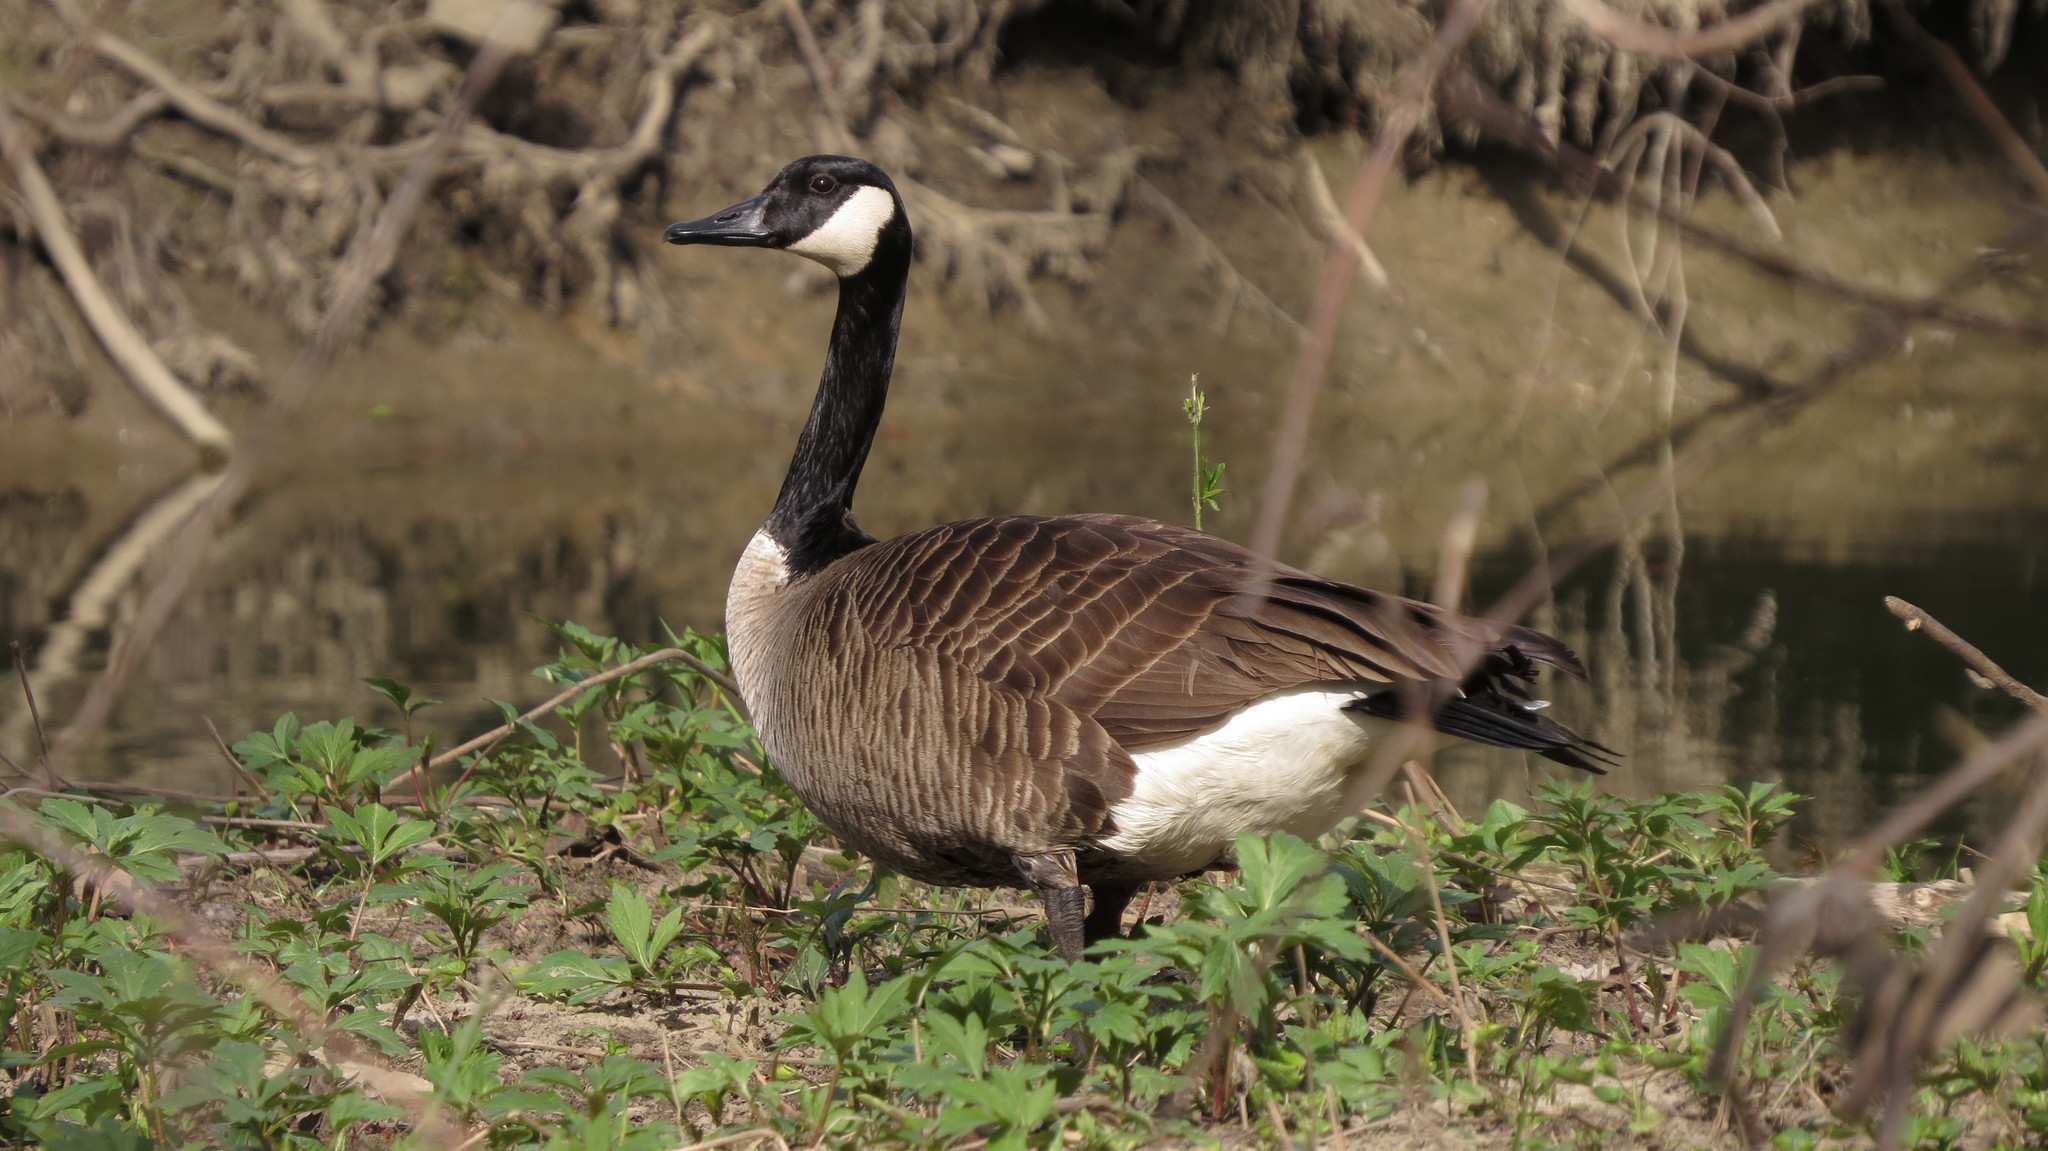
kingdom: Animalia
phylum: Chordata
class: Aves
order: Anseriformes
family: Anatidae
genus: Branta
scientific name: Branta canadensis
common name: Canada goose
